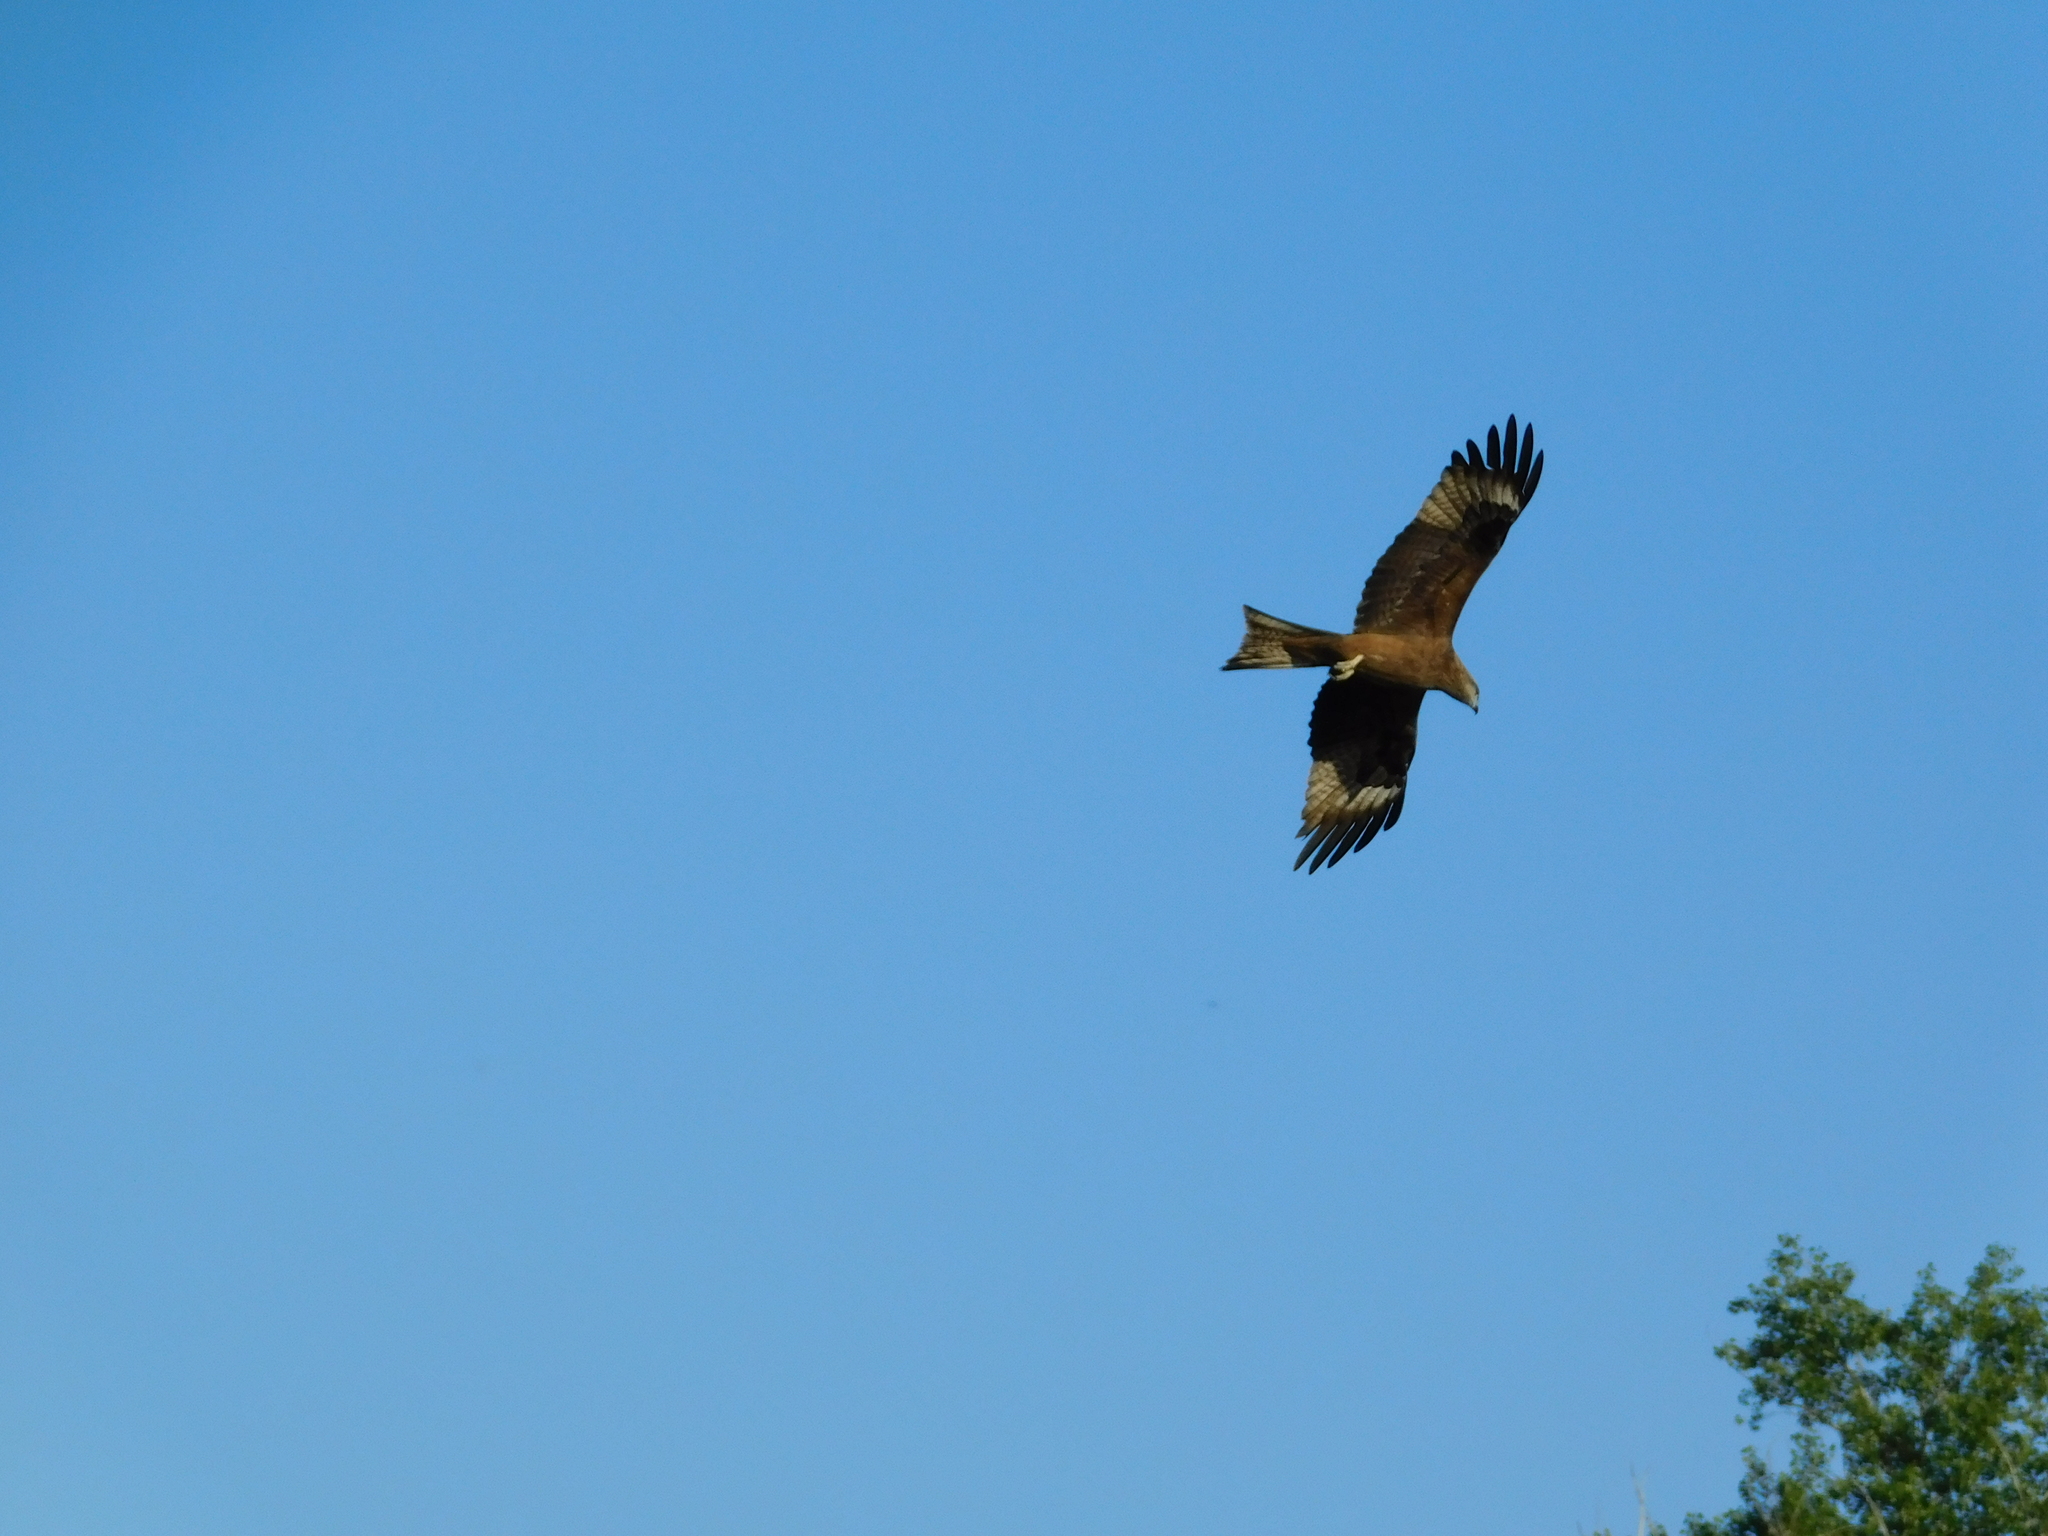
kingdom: Animalia
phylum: Chordata
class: Aves
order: Accipitriformes
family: Accipitridae
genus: Milvus
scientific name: Milvus migrans
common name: Black kite
